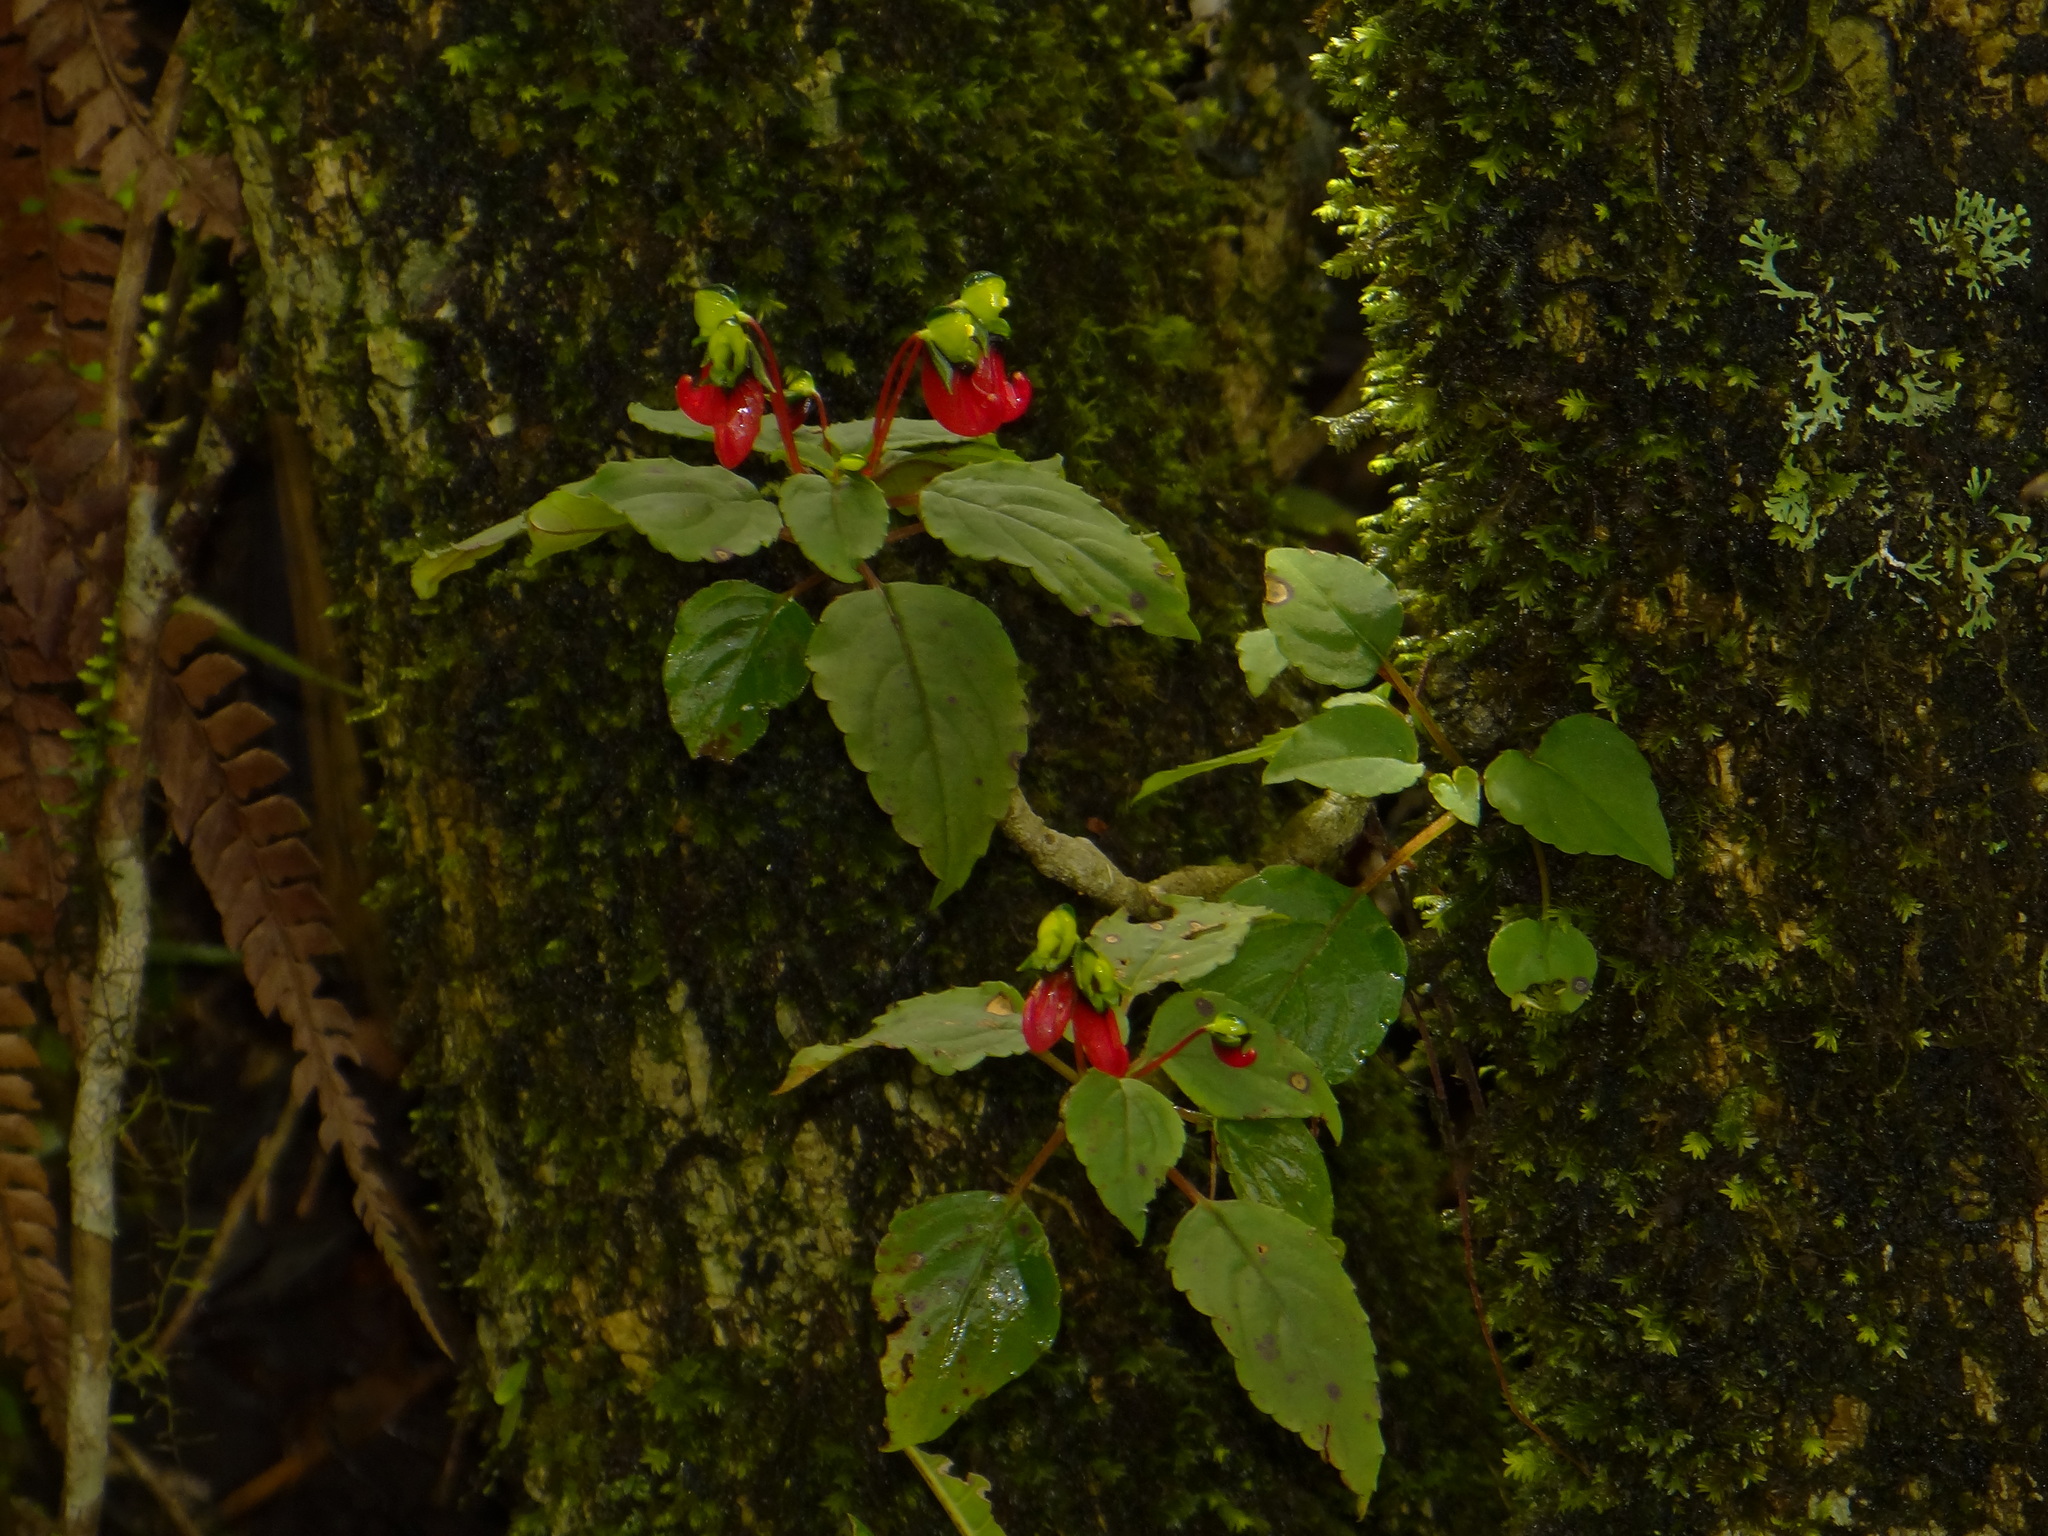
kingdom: Plantae
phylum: Tracheophyta
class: Magnoliopsida
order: Ericales
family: Balsaminaceae
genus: Impatiens
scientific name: Impatiens parasitica
